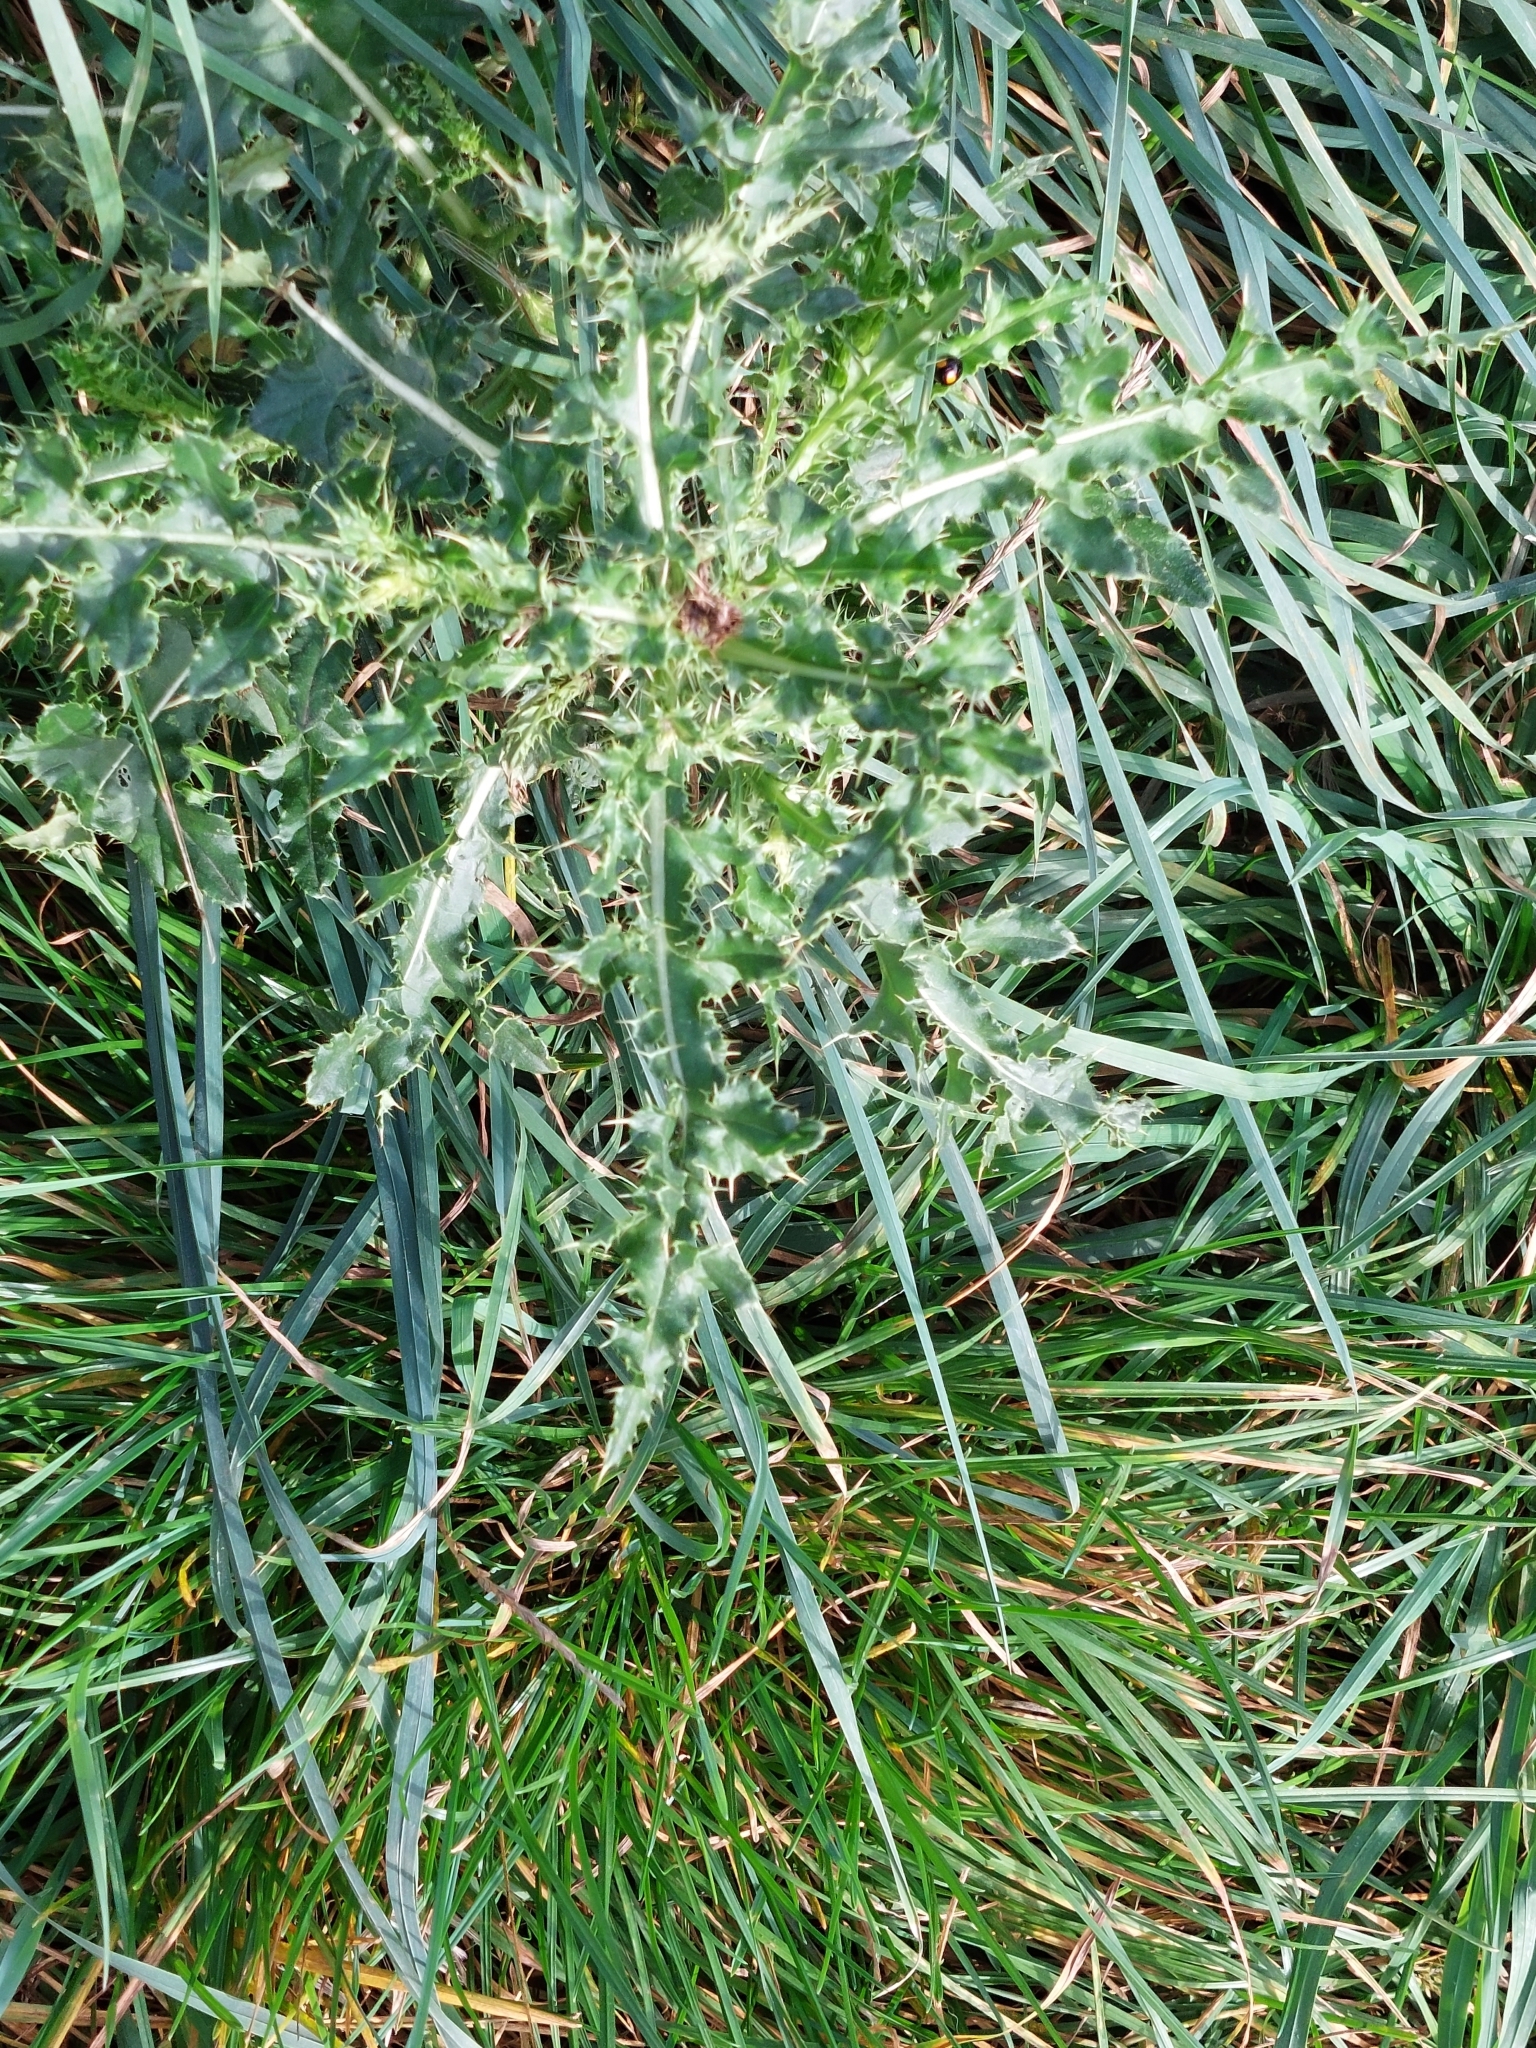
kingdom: Plantae
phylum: Tracheophyta
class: Magnoliopsida
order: Asterales
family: Asteraceae
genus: Cirsium
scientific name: Cirsium arvense
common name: Creeping thistle
